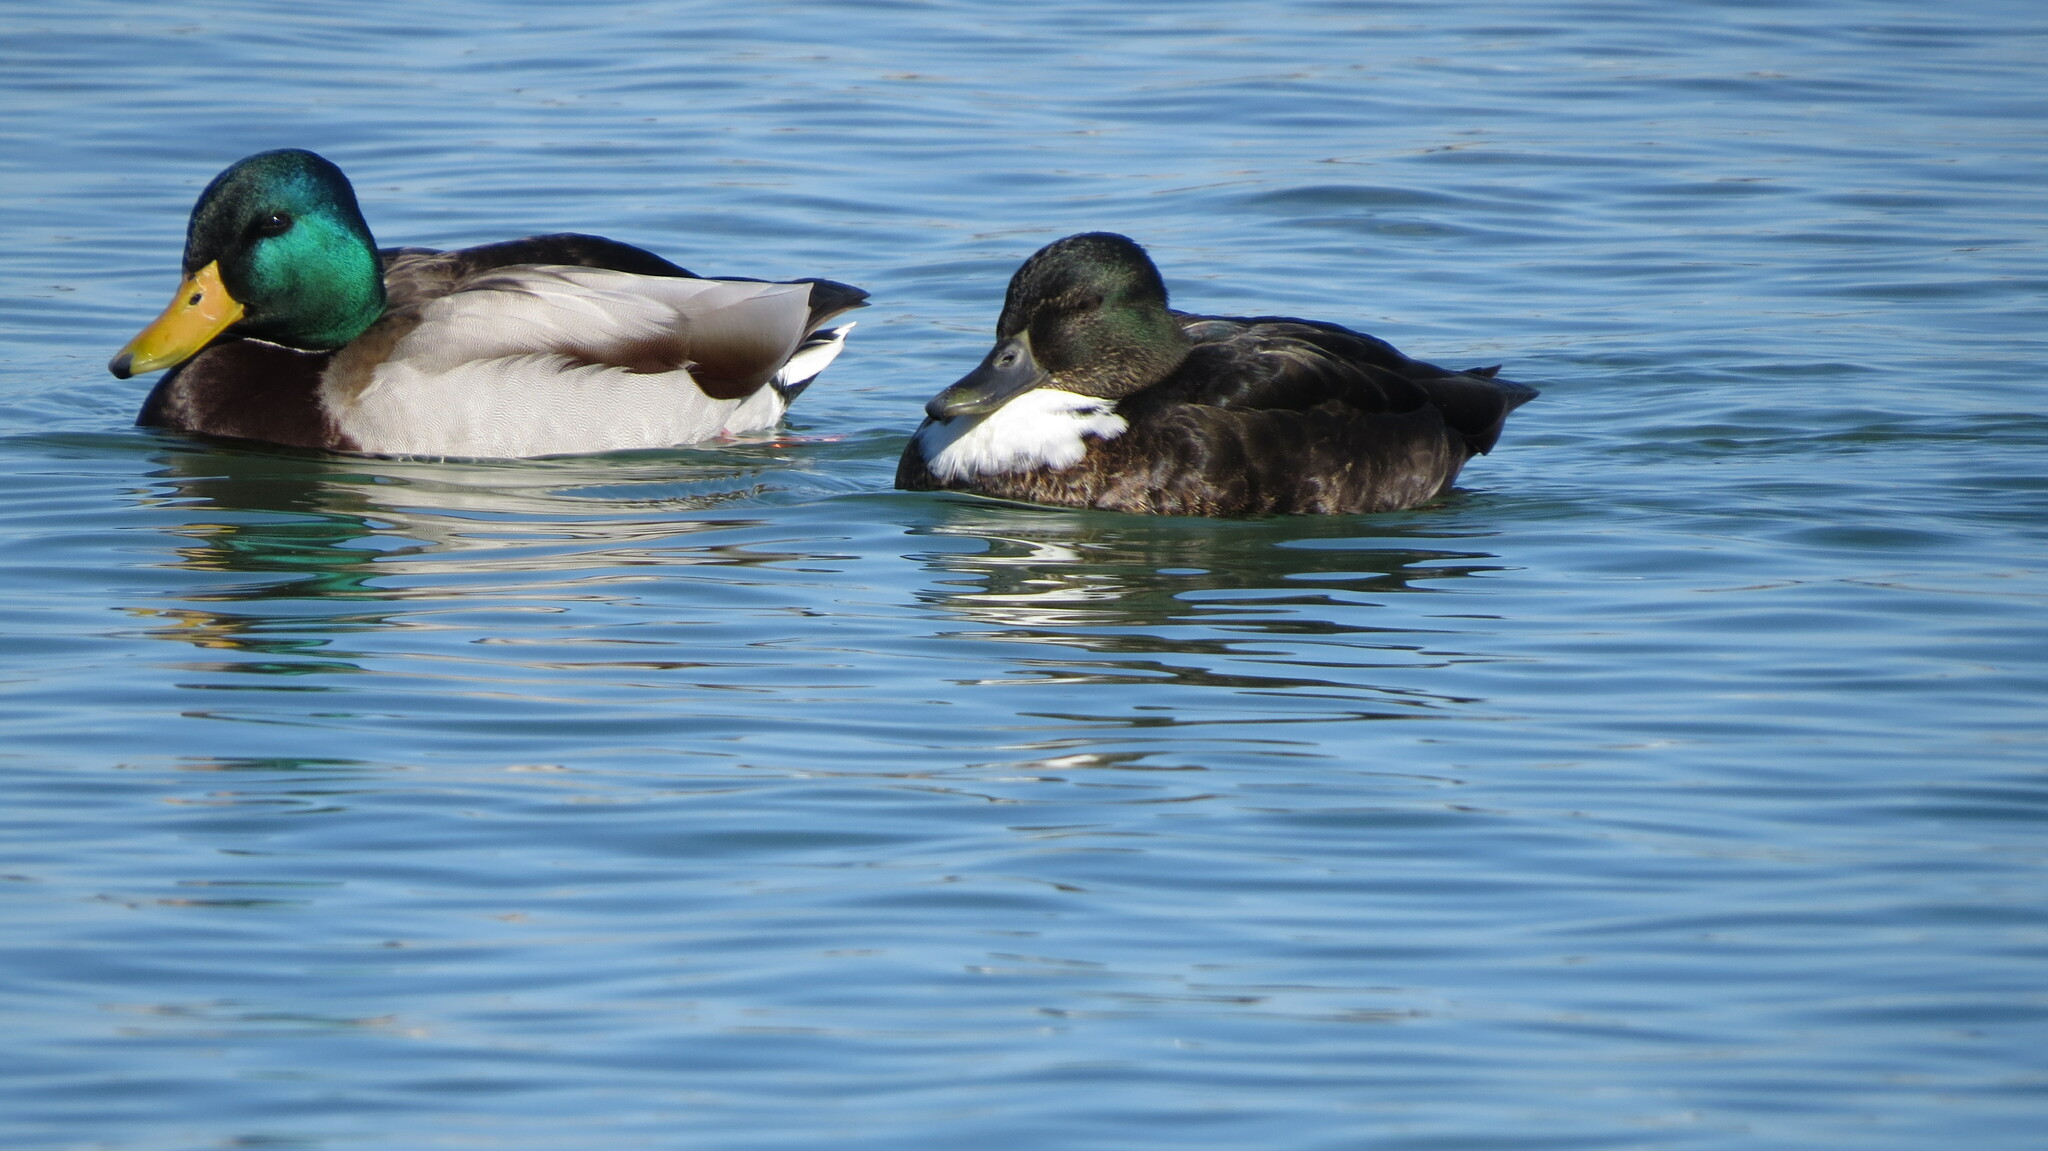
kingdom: Animalia
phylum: Chordata
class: Aves
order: Anseriformes
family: Anatidae
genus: Anas
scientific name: Anas platyrhynchos
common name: Mallard
